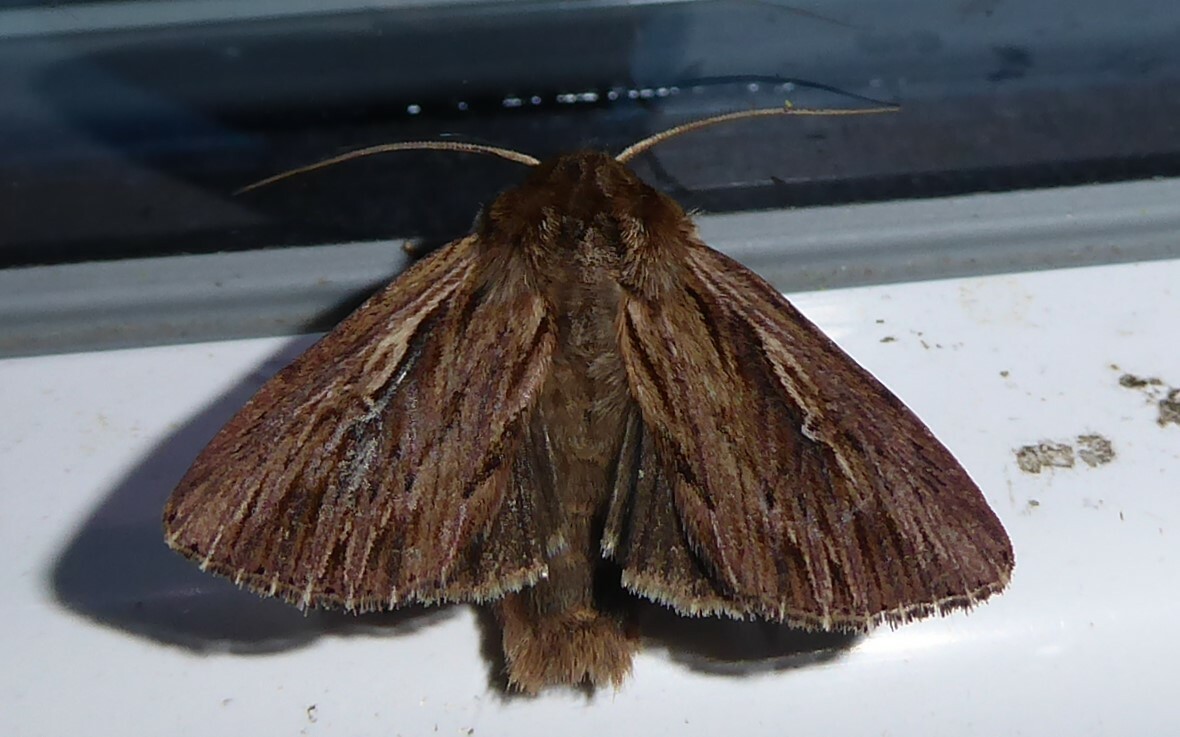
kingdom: Animalia
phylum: Arthropoda
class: Insecta
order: Lepidoptera
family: Noctuidae
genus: Persectania
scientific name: Persectania aversa
